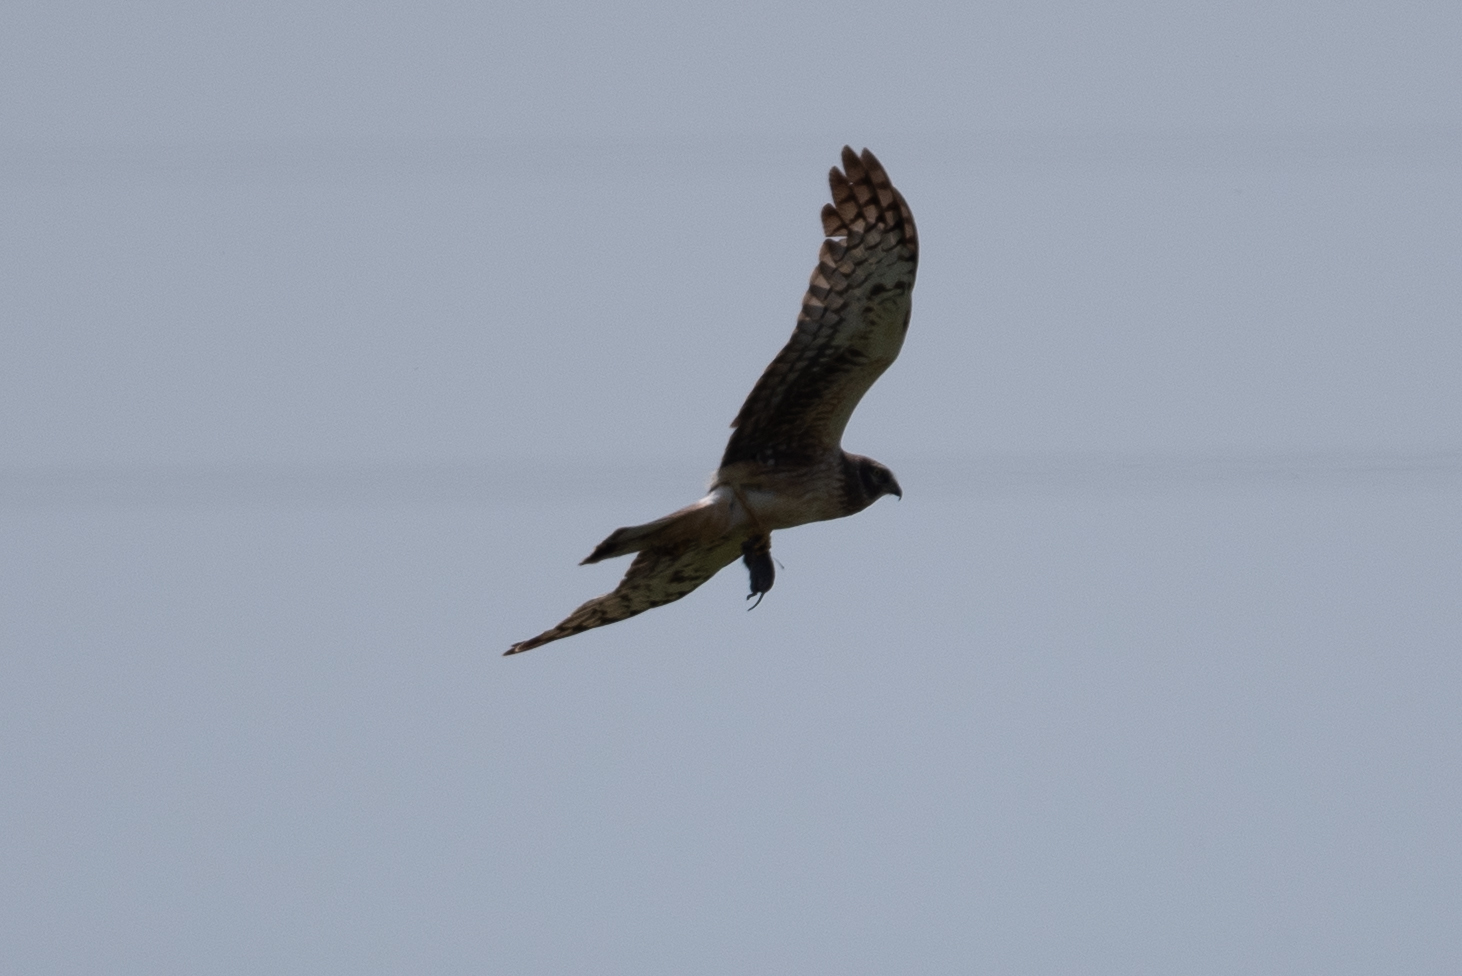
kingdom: Animalia
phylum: Chordata
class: Aves
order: Accipitriformes
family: Accipitridae
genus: Circus
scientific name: Circus cyaneus
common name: Hen harrier
